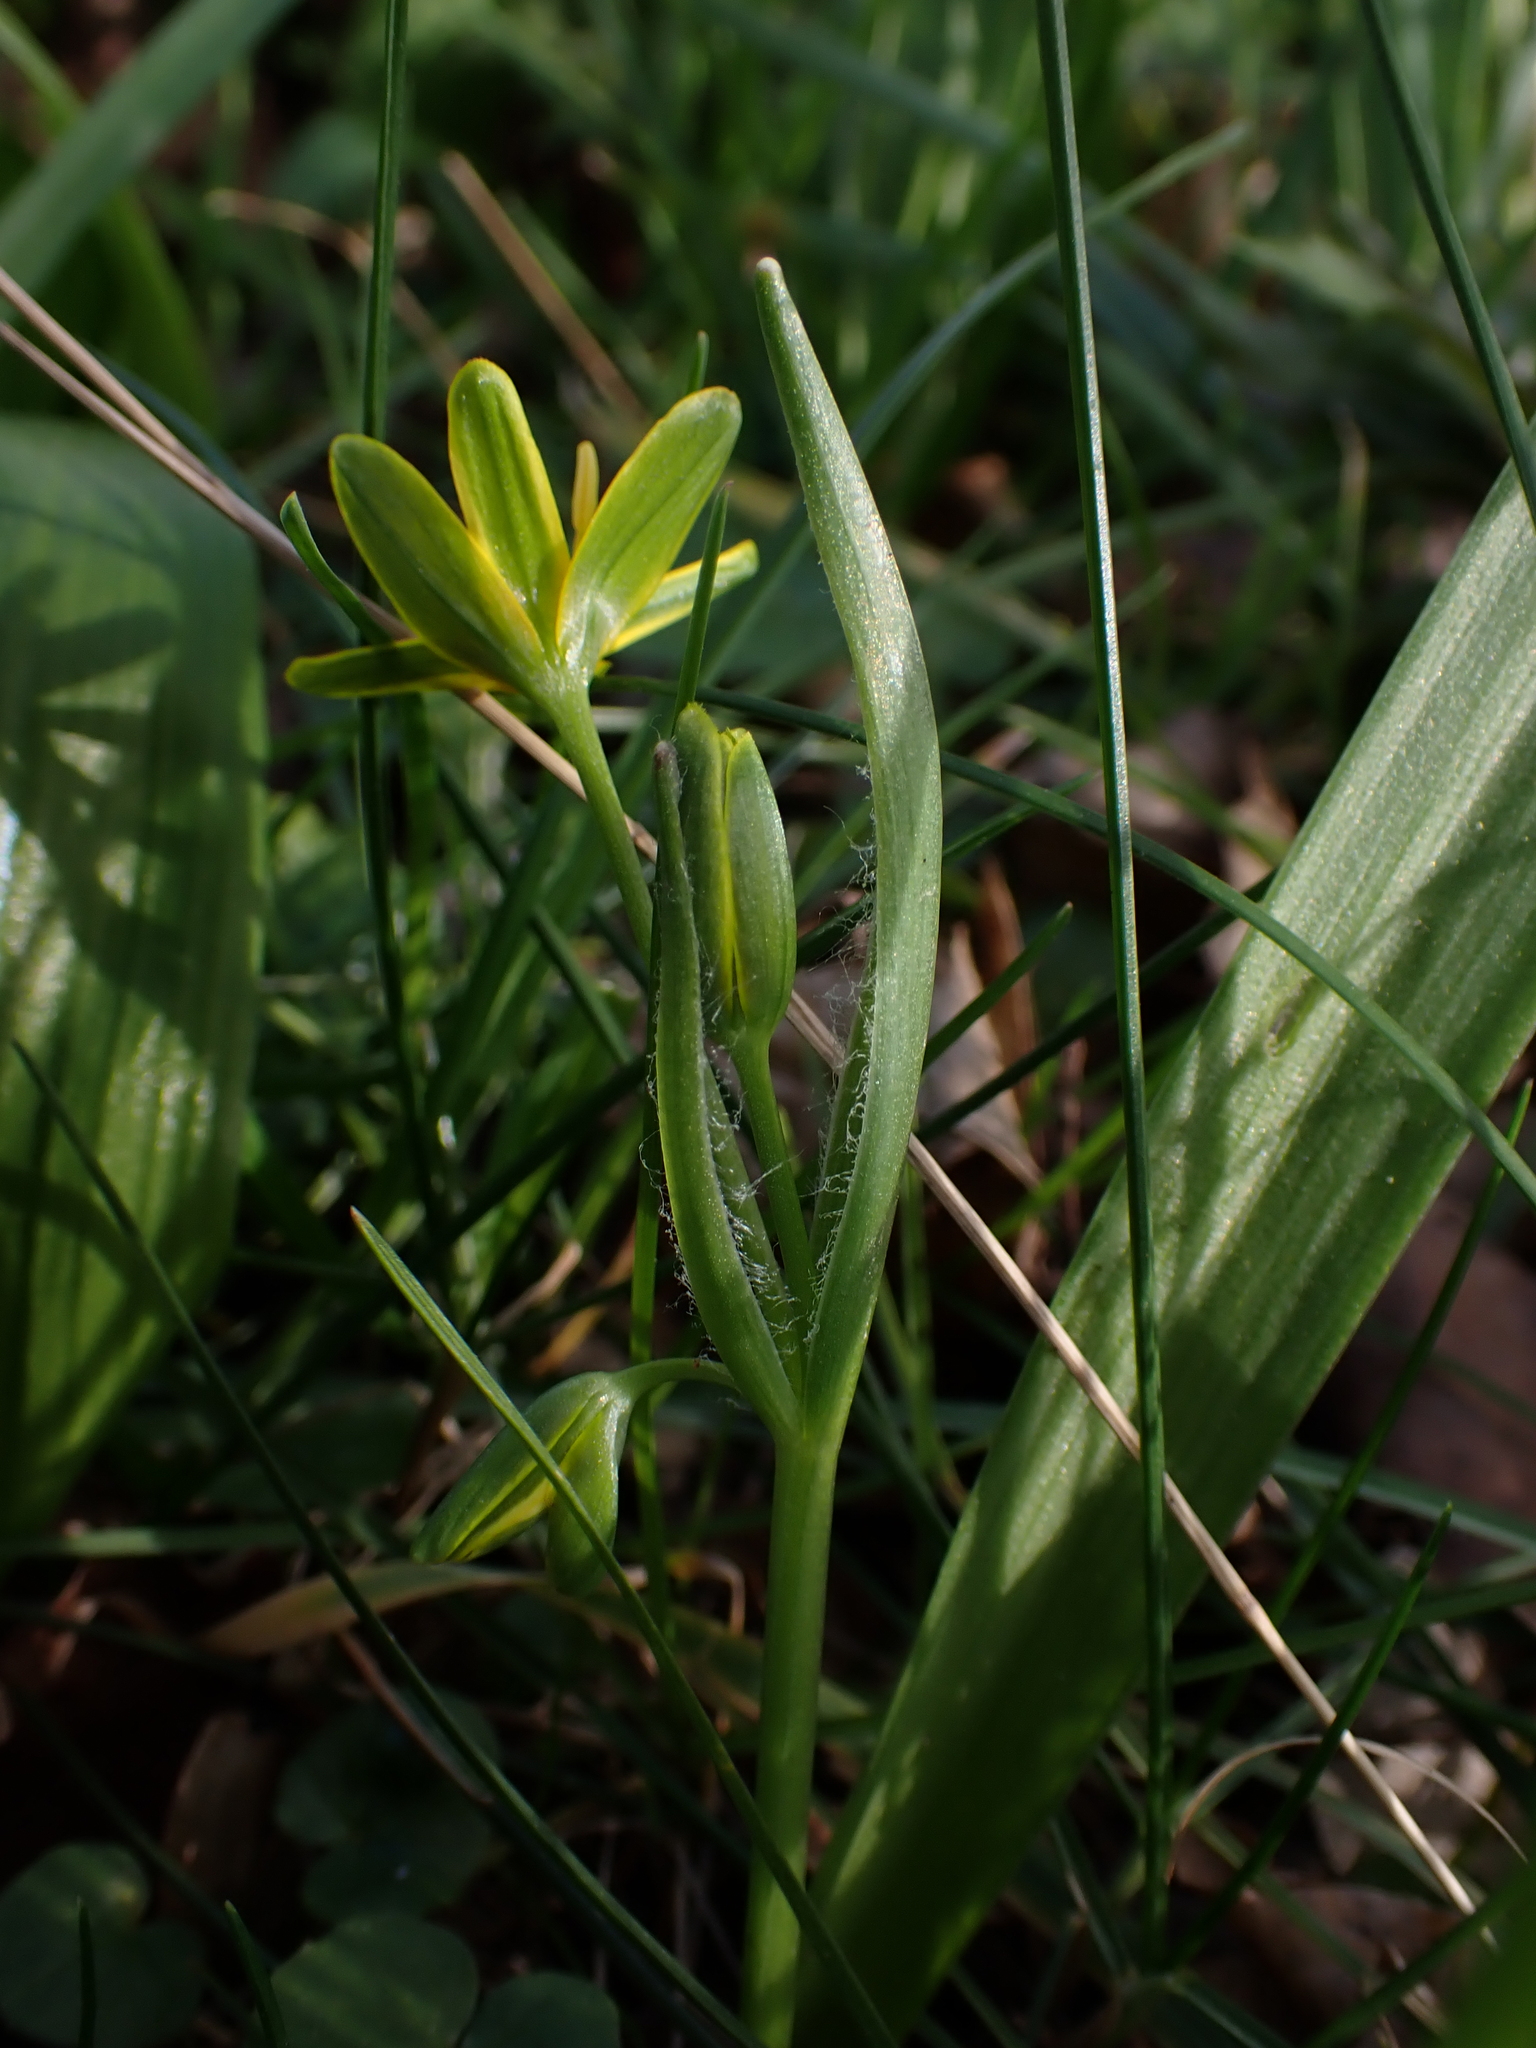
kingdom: Plantae
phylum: Tracheophyta
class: Liliopsida
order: Liliales
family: Liliaceae
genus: Gagea
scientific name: Gagea lutea
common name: Yellow star-of-bethlehem
